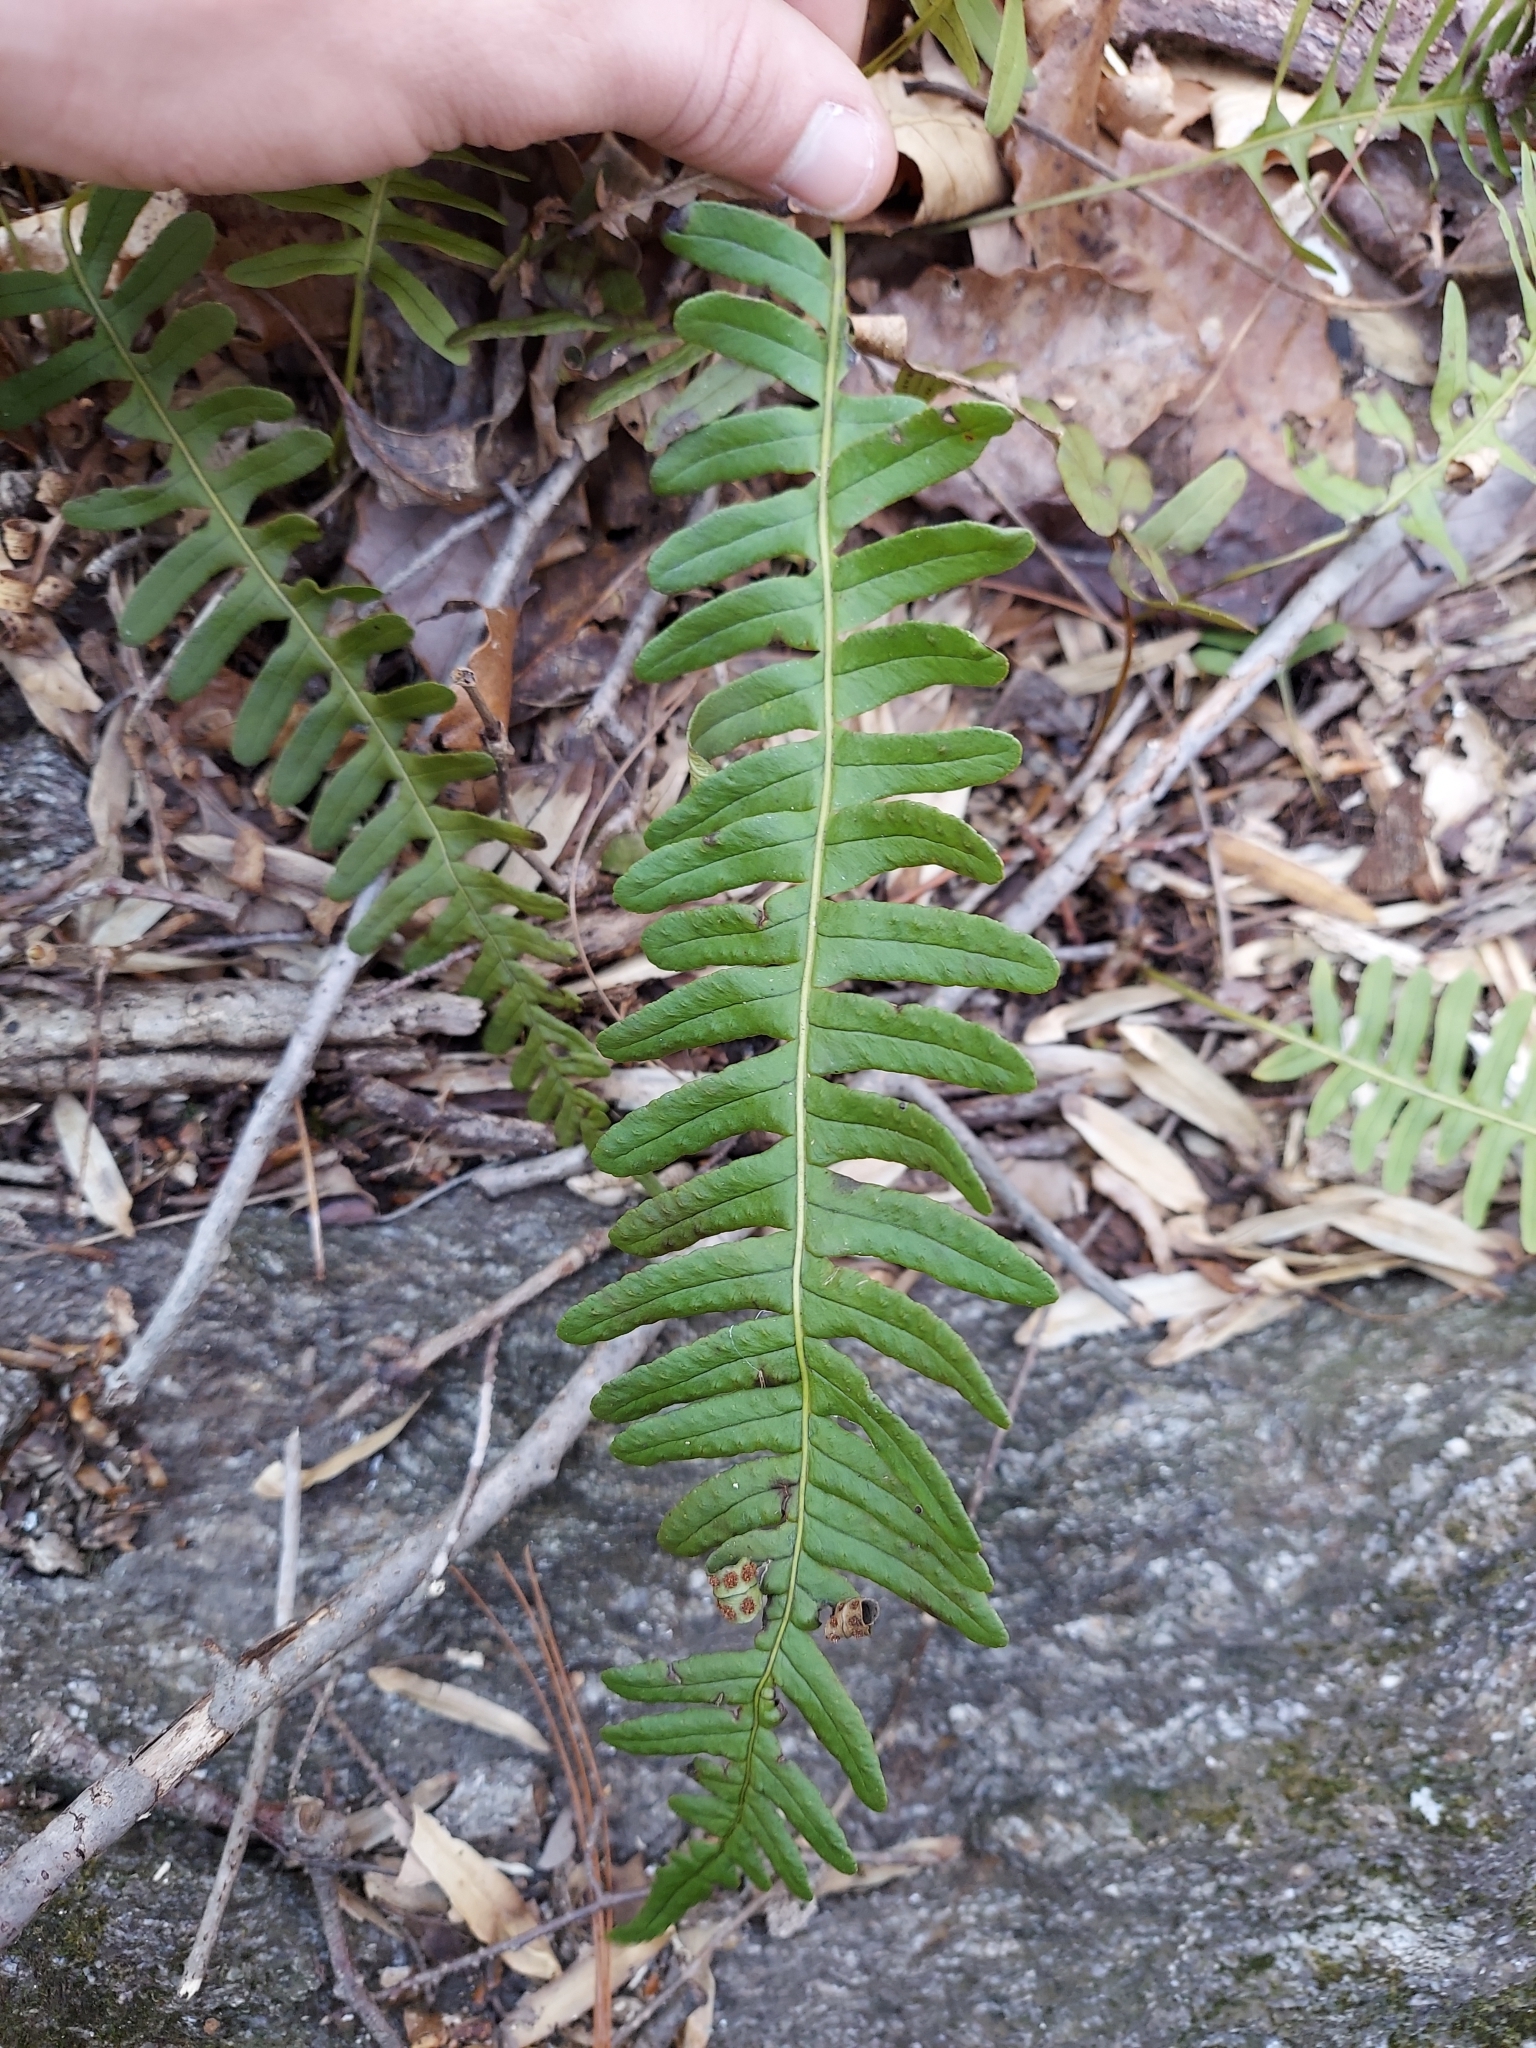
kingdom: Plantae
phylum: Tracheophyta
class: Polypodiopsida
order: Polypodiales
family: Polypodiaceae
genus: Polypodium
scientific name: Polypodium virginianum
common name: American wall fern
